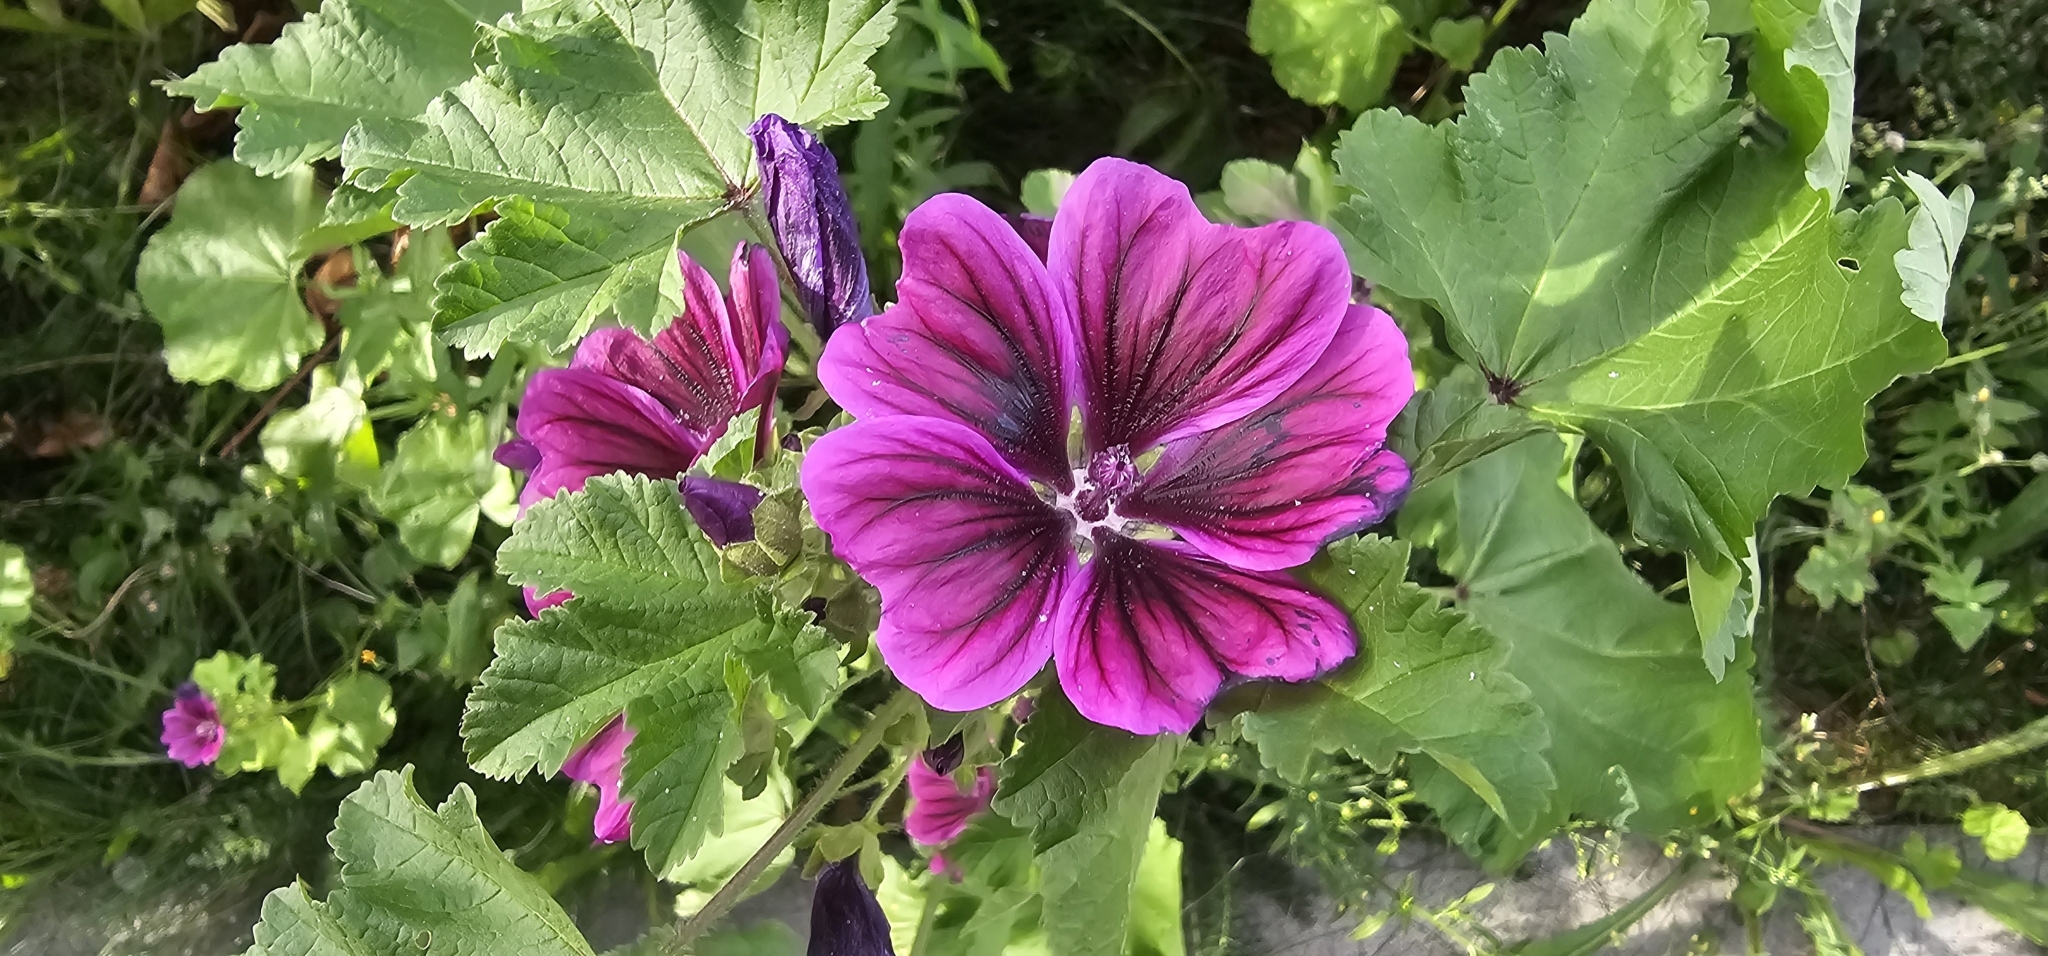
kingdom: Plantae
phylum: Tracheophyta
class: Magnoliopsida
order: Malvales
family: Malvaceae
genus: Malva
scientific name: Malva sylvestris
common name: Common mallow
